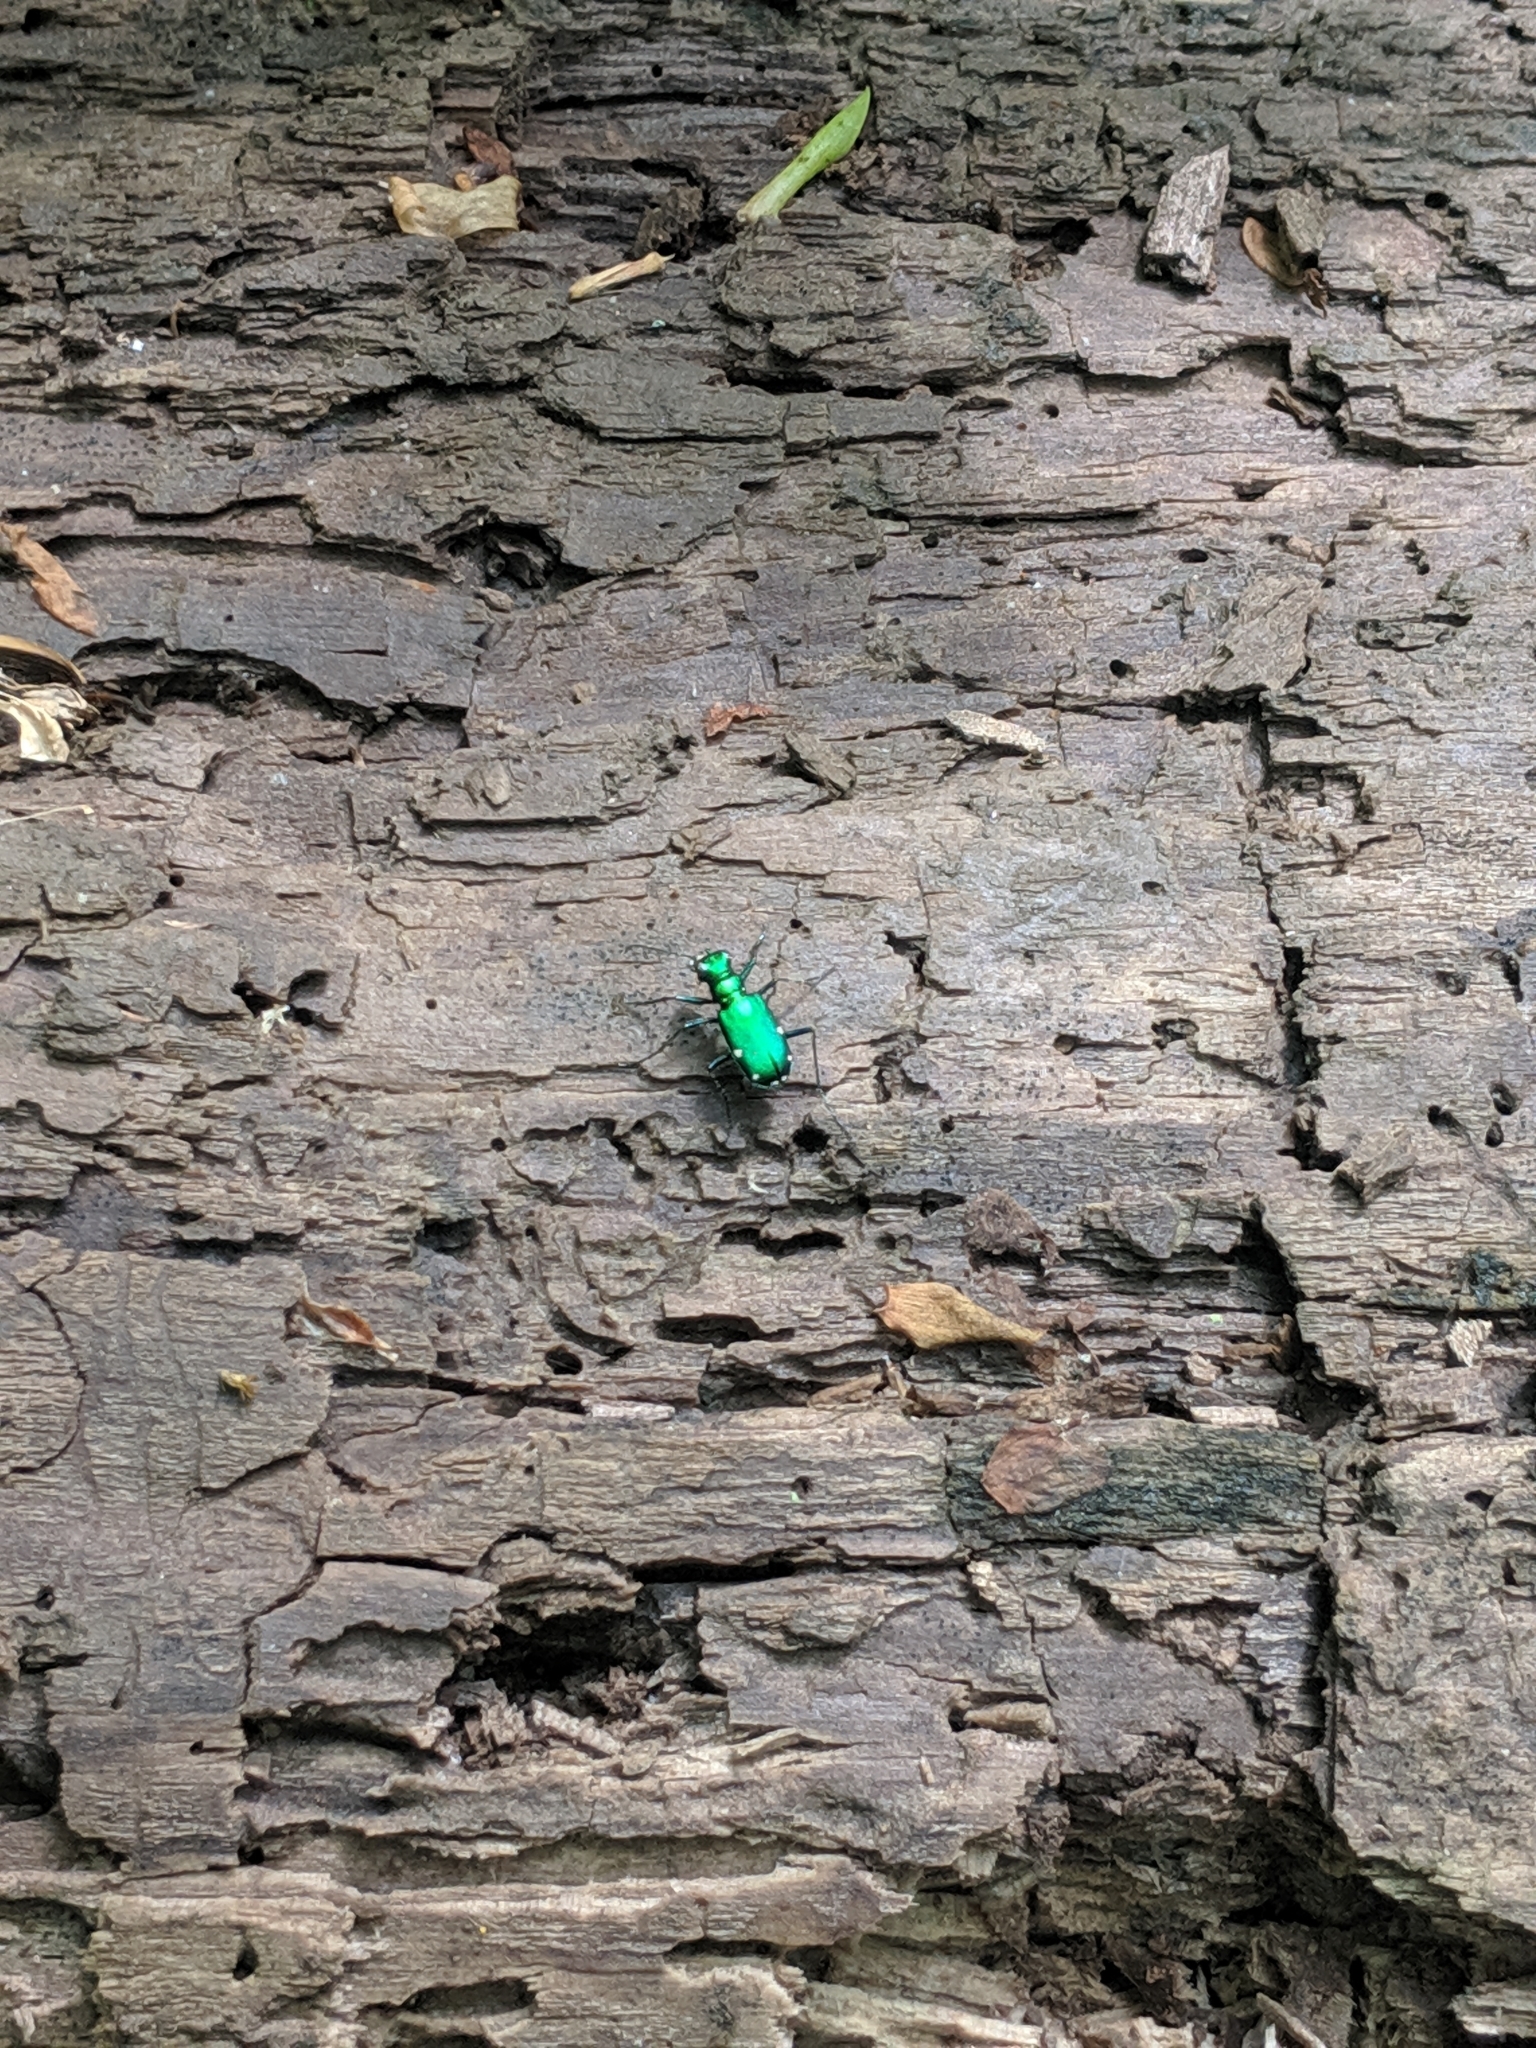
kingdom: Animalia
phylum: Arthropoda
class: Insecta
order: Coleoptera
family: Carabidae
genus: Cicindela
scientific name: Cicindela sexguttata
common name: Six-spotted tiger beetle
